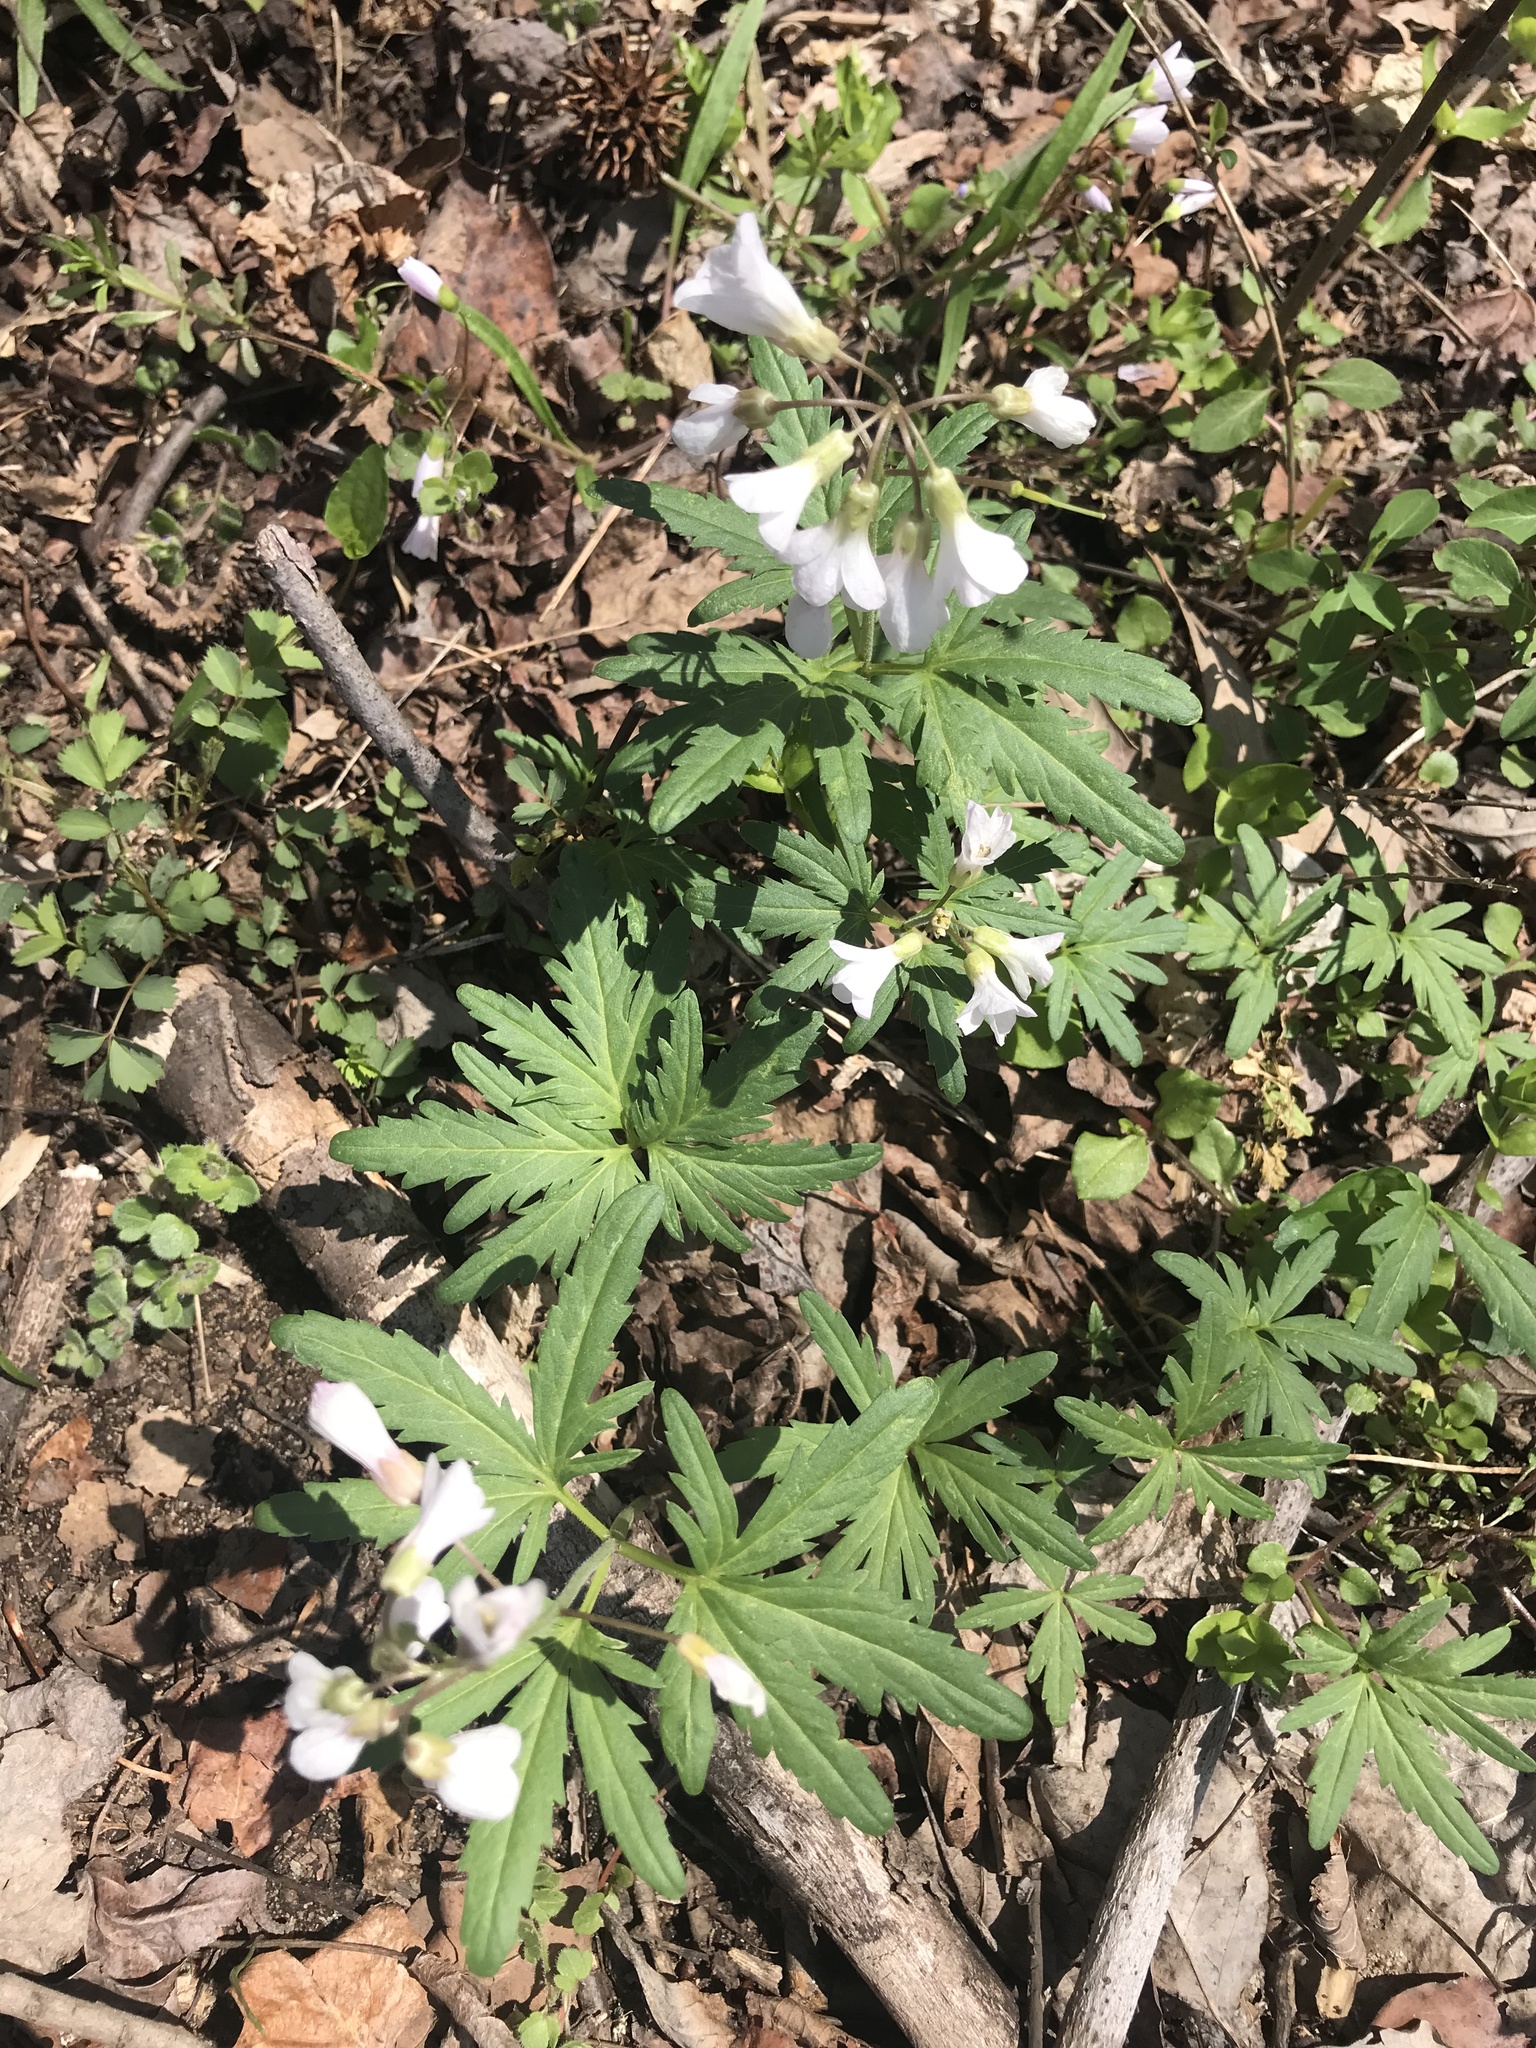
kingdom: Plantae
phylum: Tracheophyta
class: Magnoliopsida
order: Brassicales
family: Brassicaceae
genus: Cardamine
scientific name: Cardamine concatenata
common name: Cut-leaf toothcup
